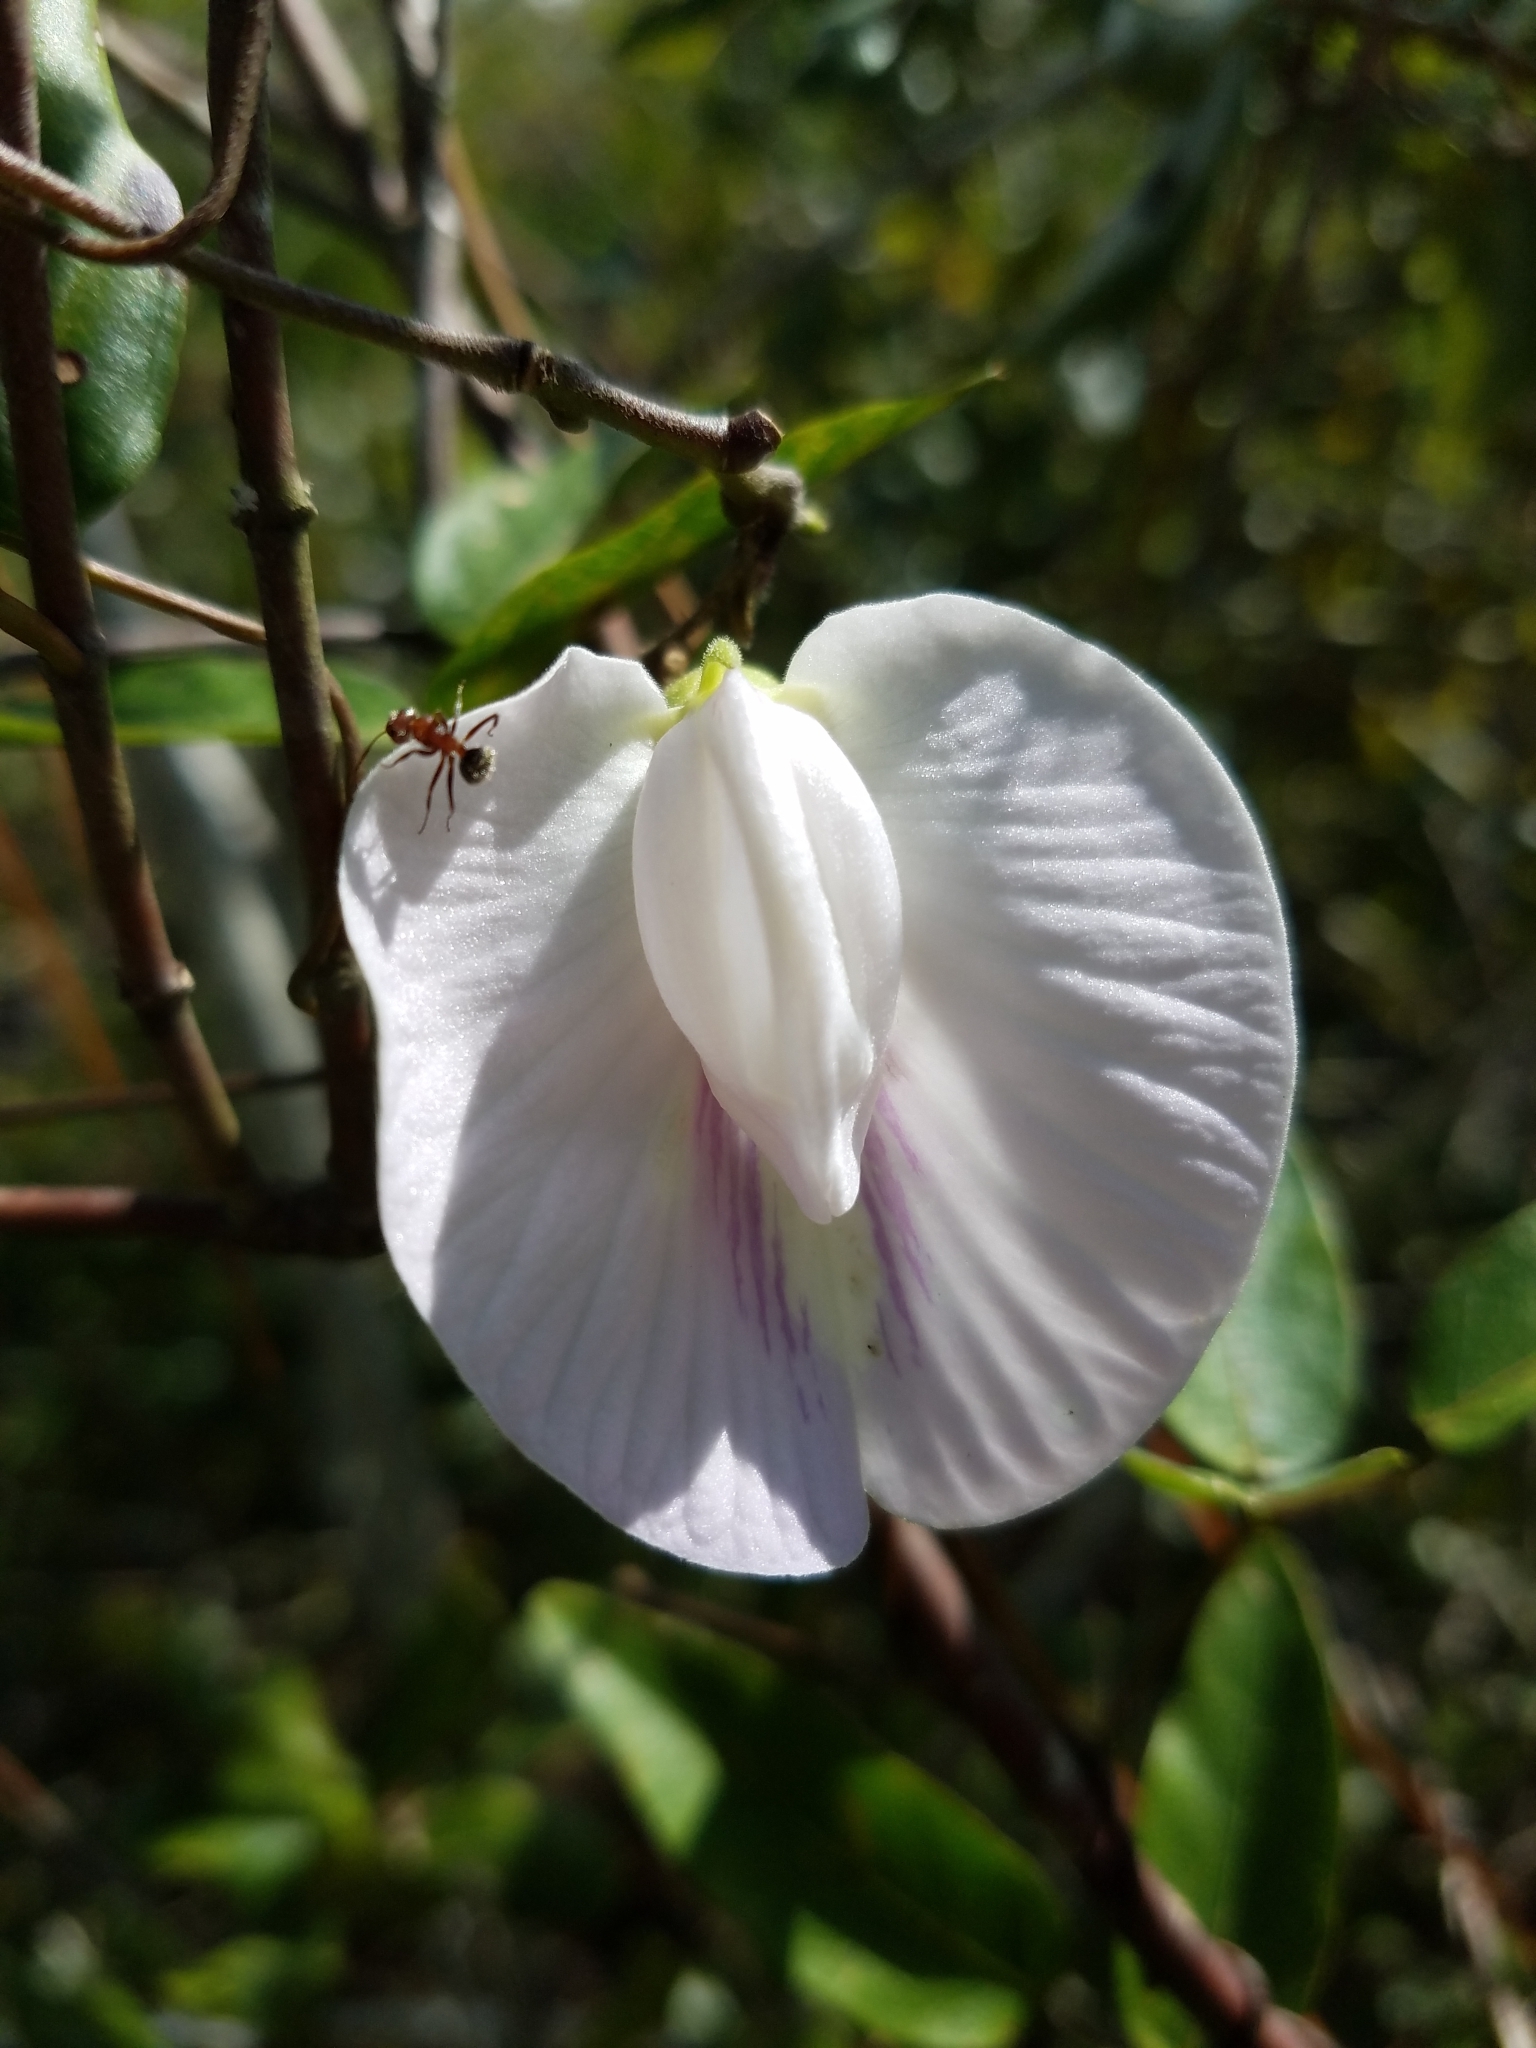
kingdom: Plantae
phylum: Tracheophyta
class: Magnoliopsida
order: Fabales
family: Fabaceae
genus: Centrosema
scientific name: Centrosema arenicola
